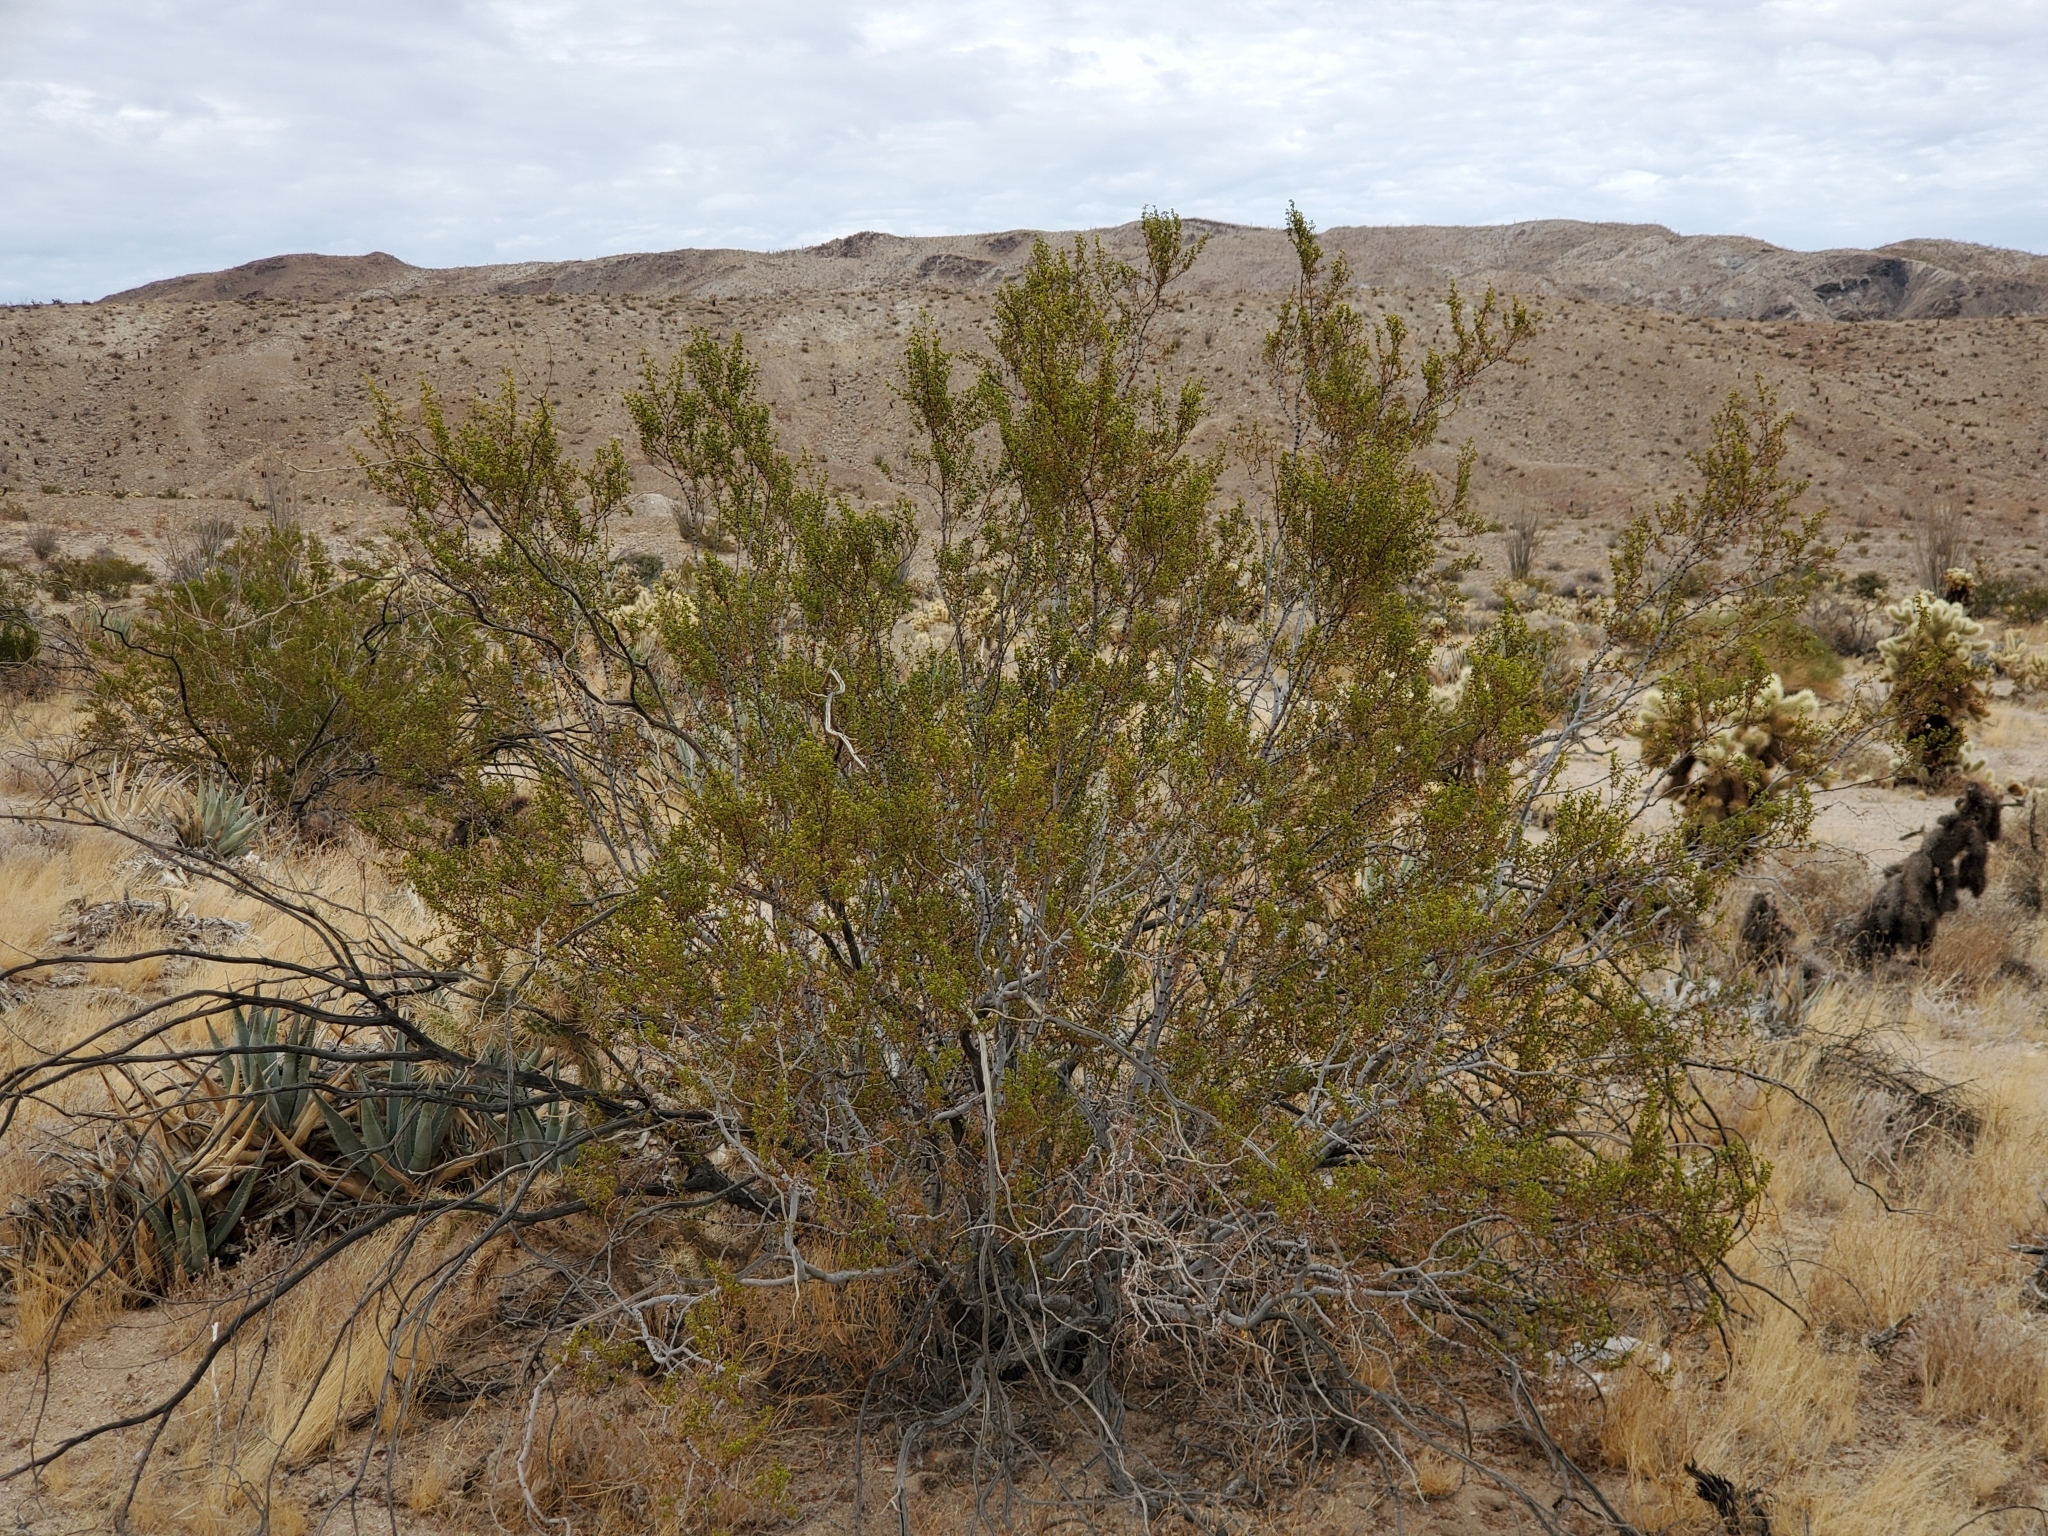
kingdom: Plantae
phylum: Tracheophyta
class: Magnoliopsida
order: Zygophyllales
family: Zygophyllaceae
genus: Larrea
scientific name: Larrea tridentata
